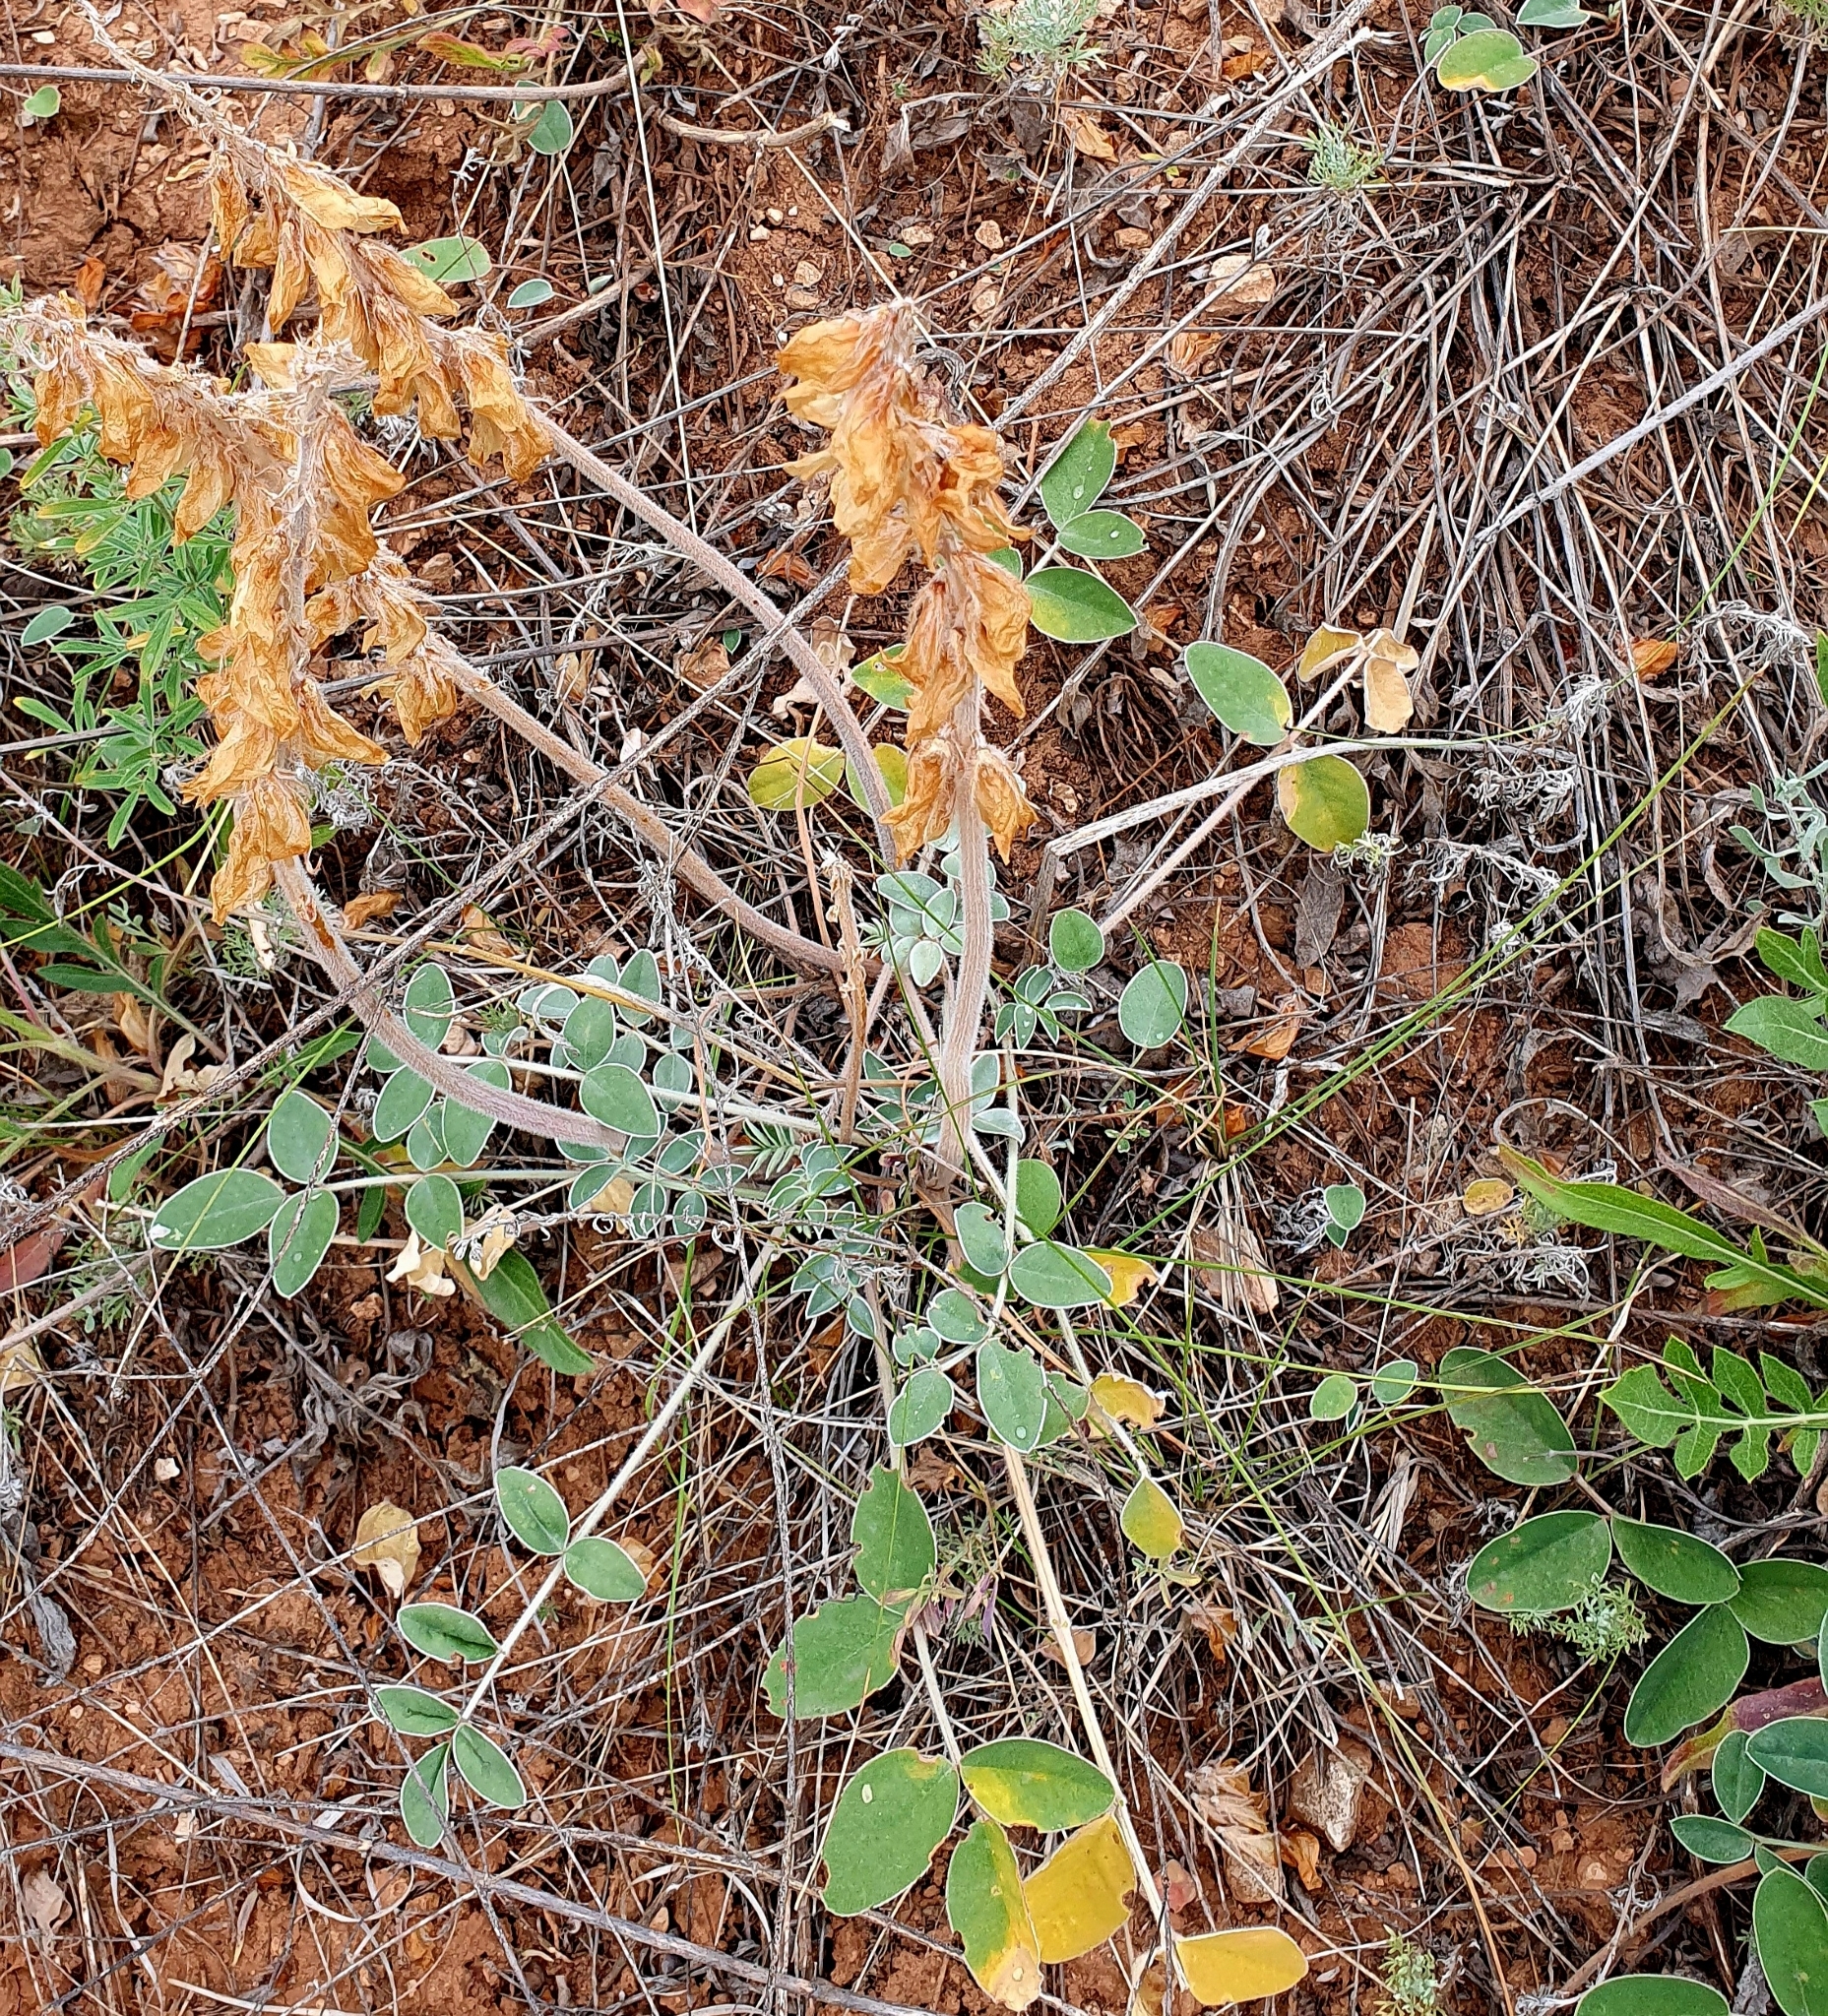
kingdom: Plantae
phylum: Tracheophyta
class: Magnoliopsida
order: Fabales
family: Fabaceae
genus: Hedysarum
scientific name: Hedysarum grandiflorum
